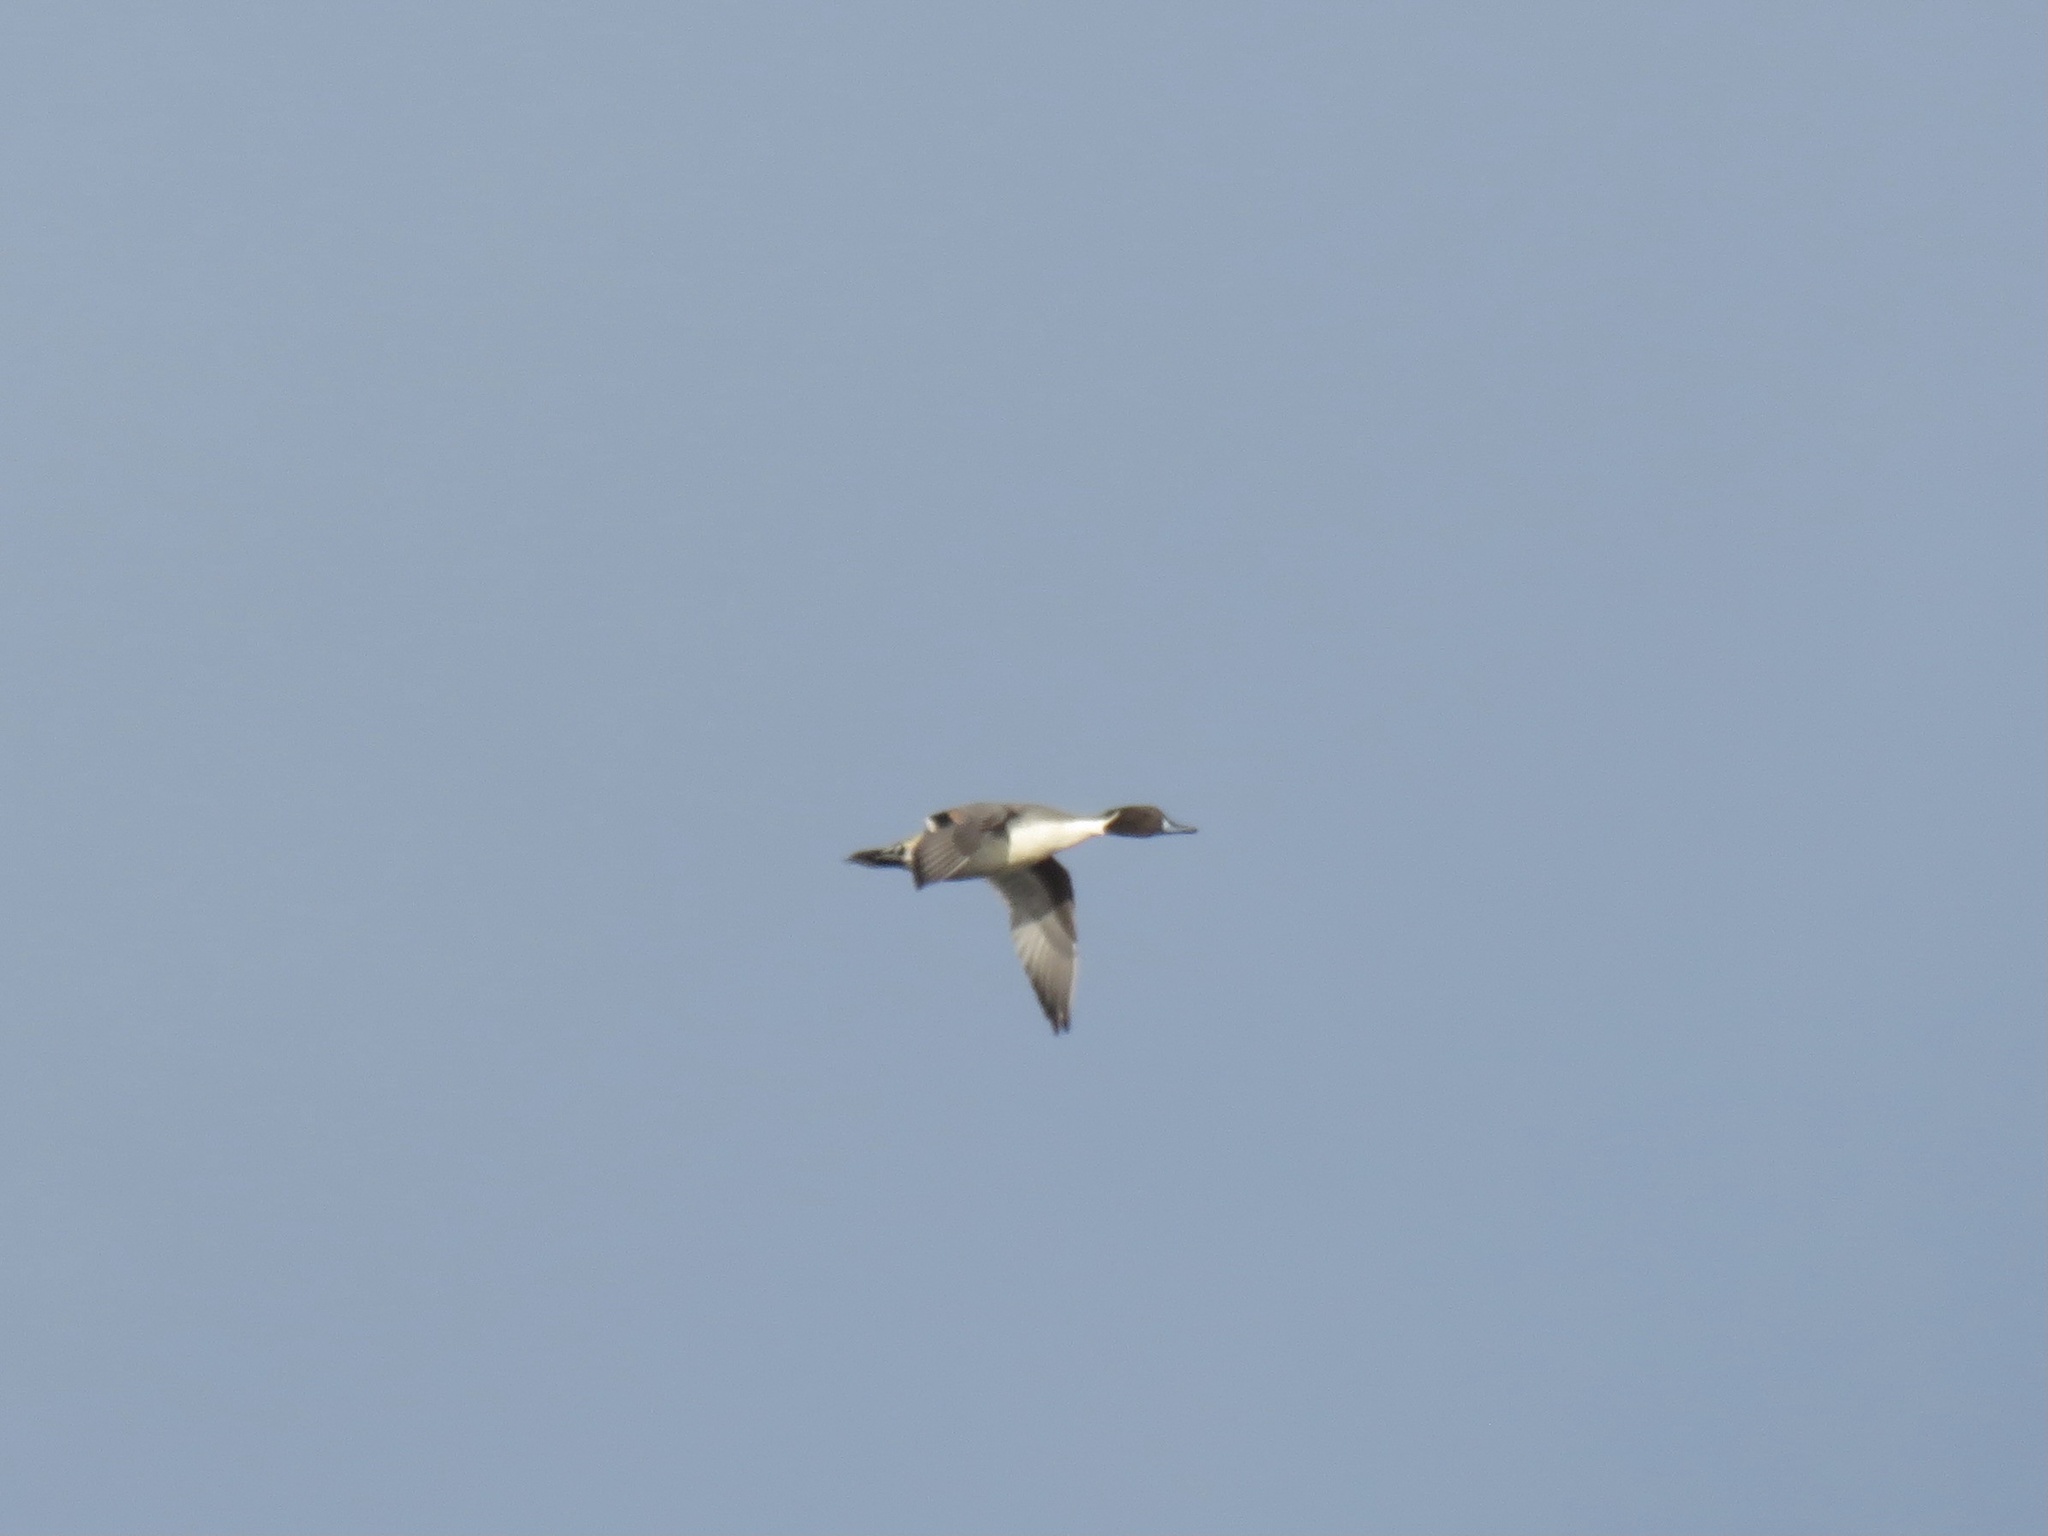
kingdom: Animalia
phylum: Chordata
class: Aves
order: Anseriformes
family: Anatidae
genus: Anas
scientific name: Anas acuta
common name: Northern pintail
